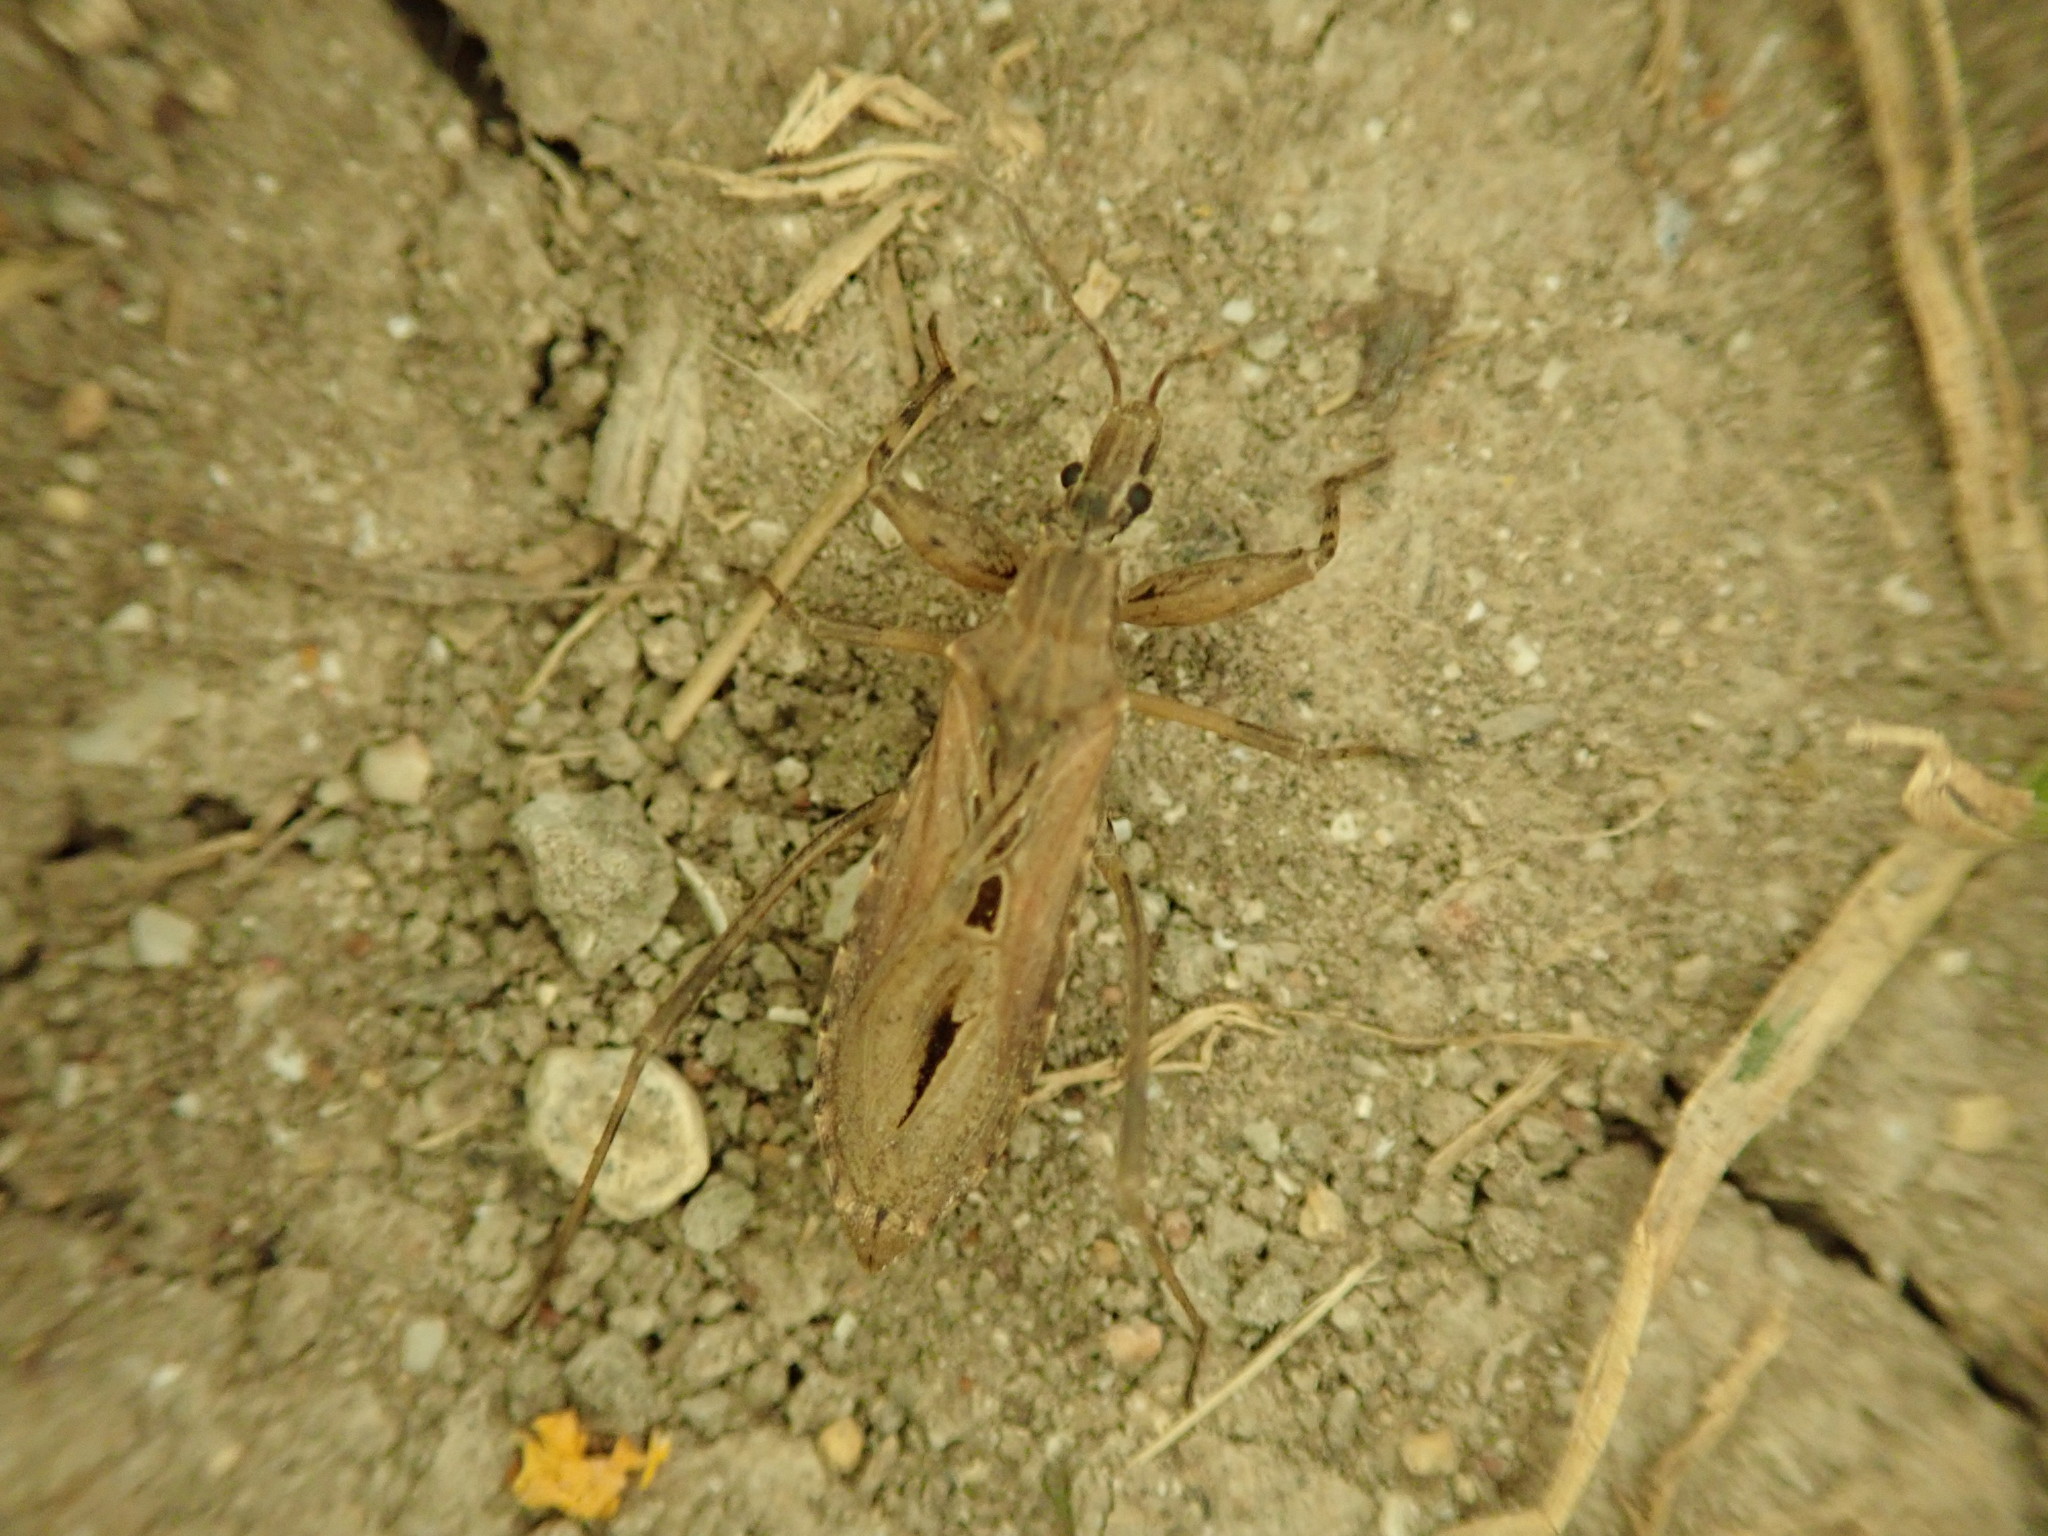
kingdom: Animalia
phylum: Arthropoda
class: Insecta
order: Hemiptera
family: Reduviidae
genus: Oncocephalus
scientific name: Oncocephalus pilicornis
